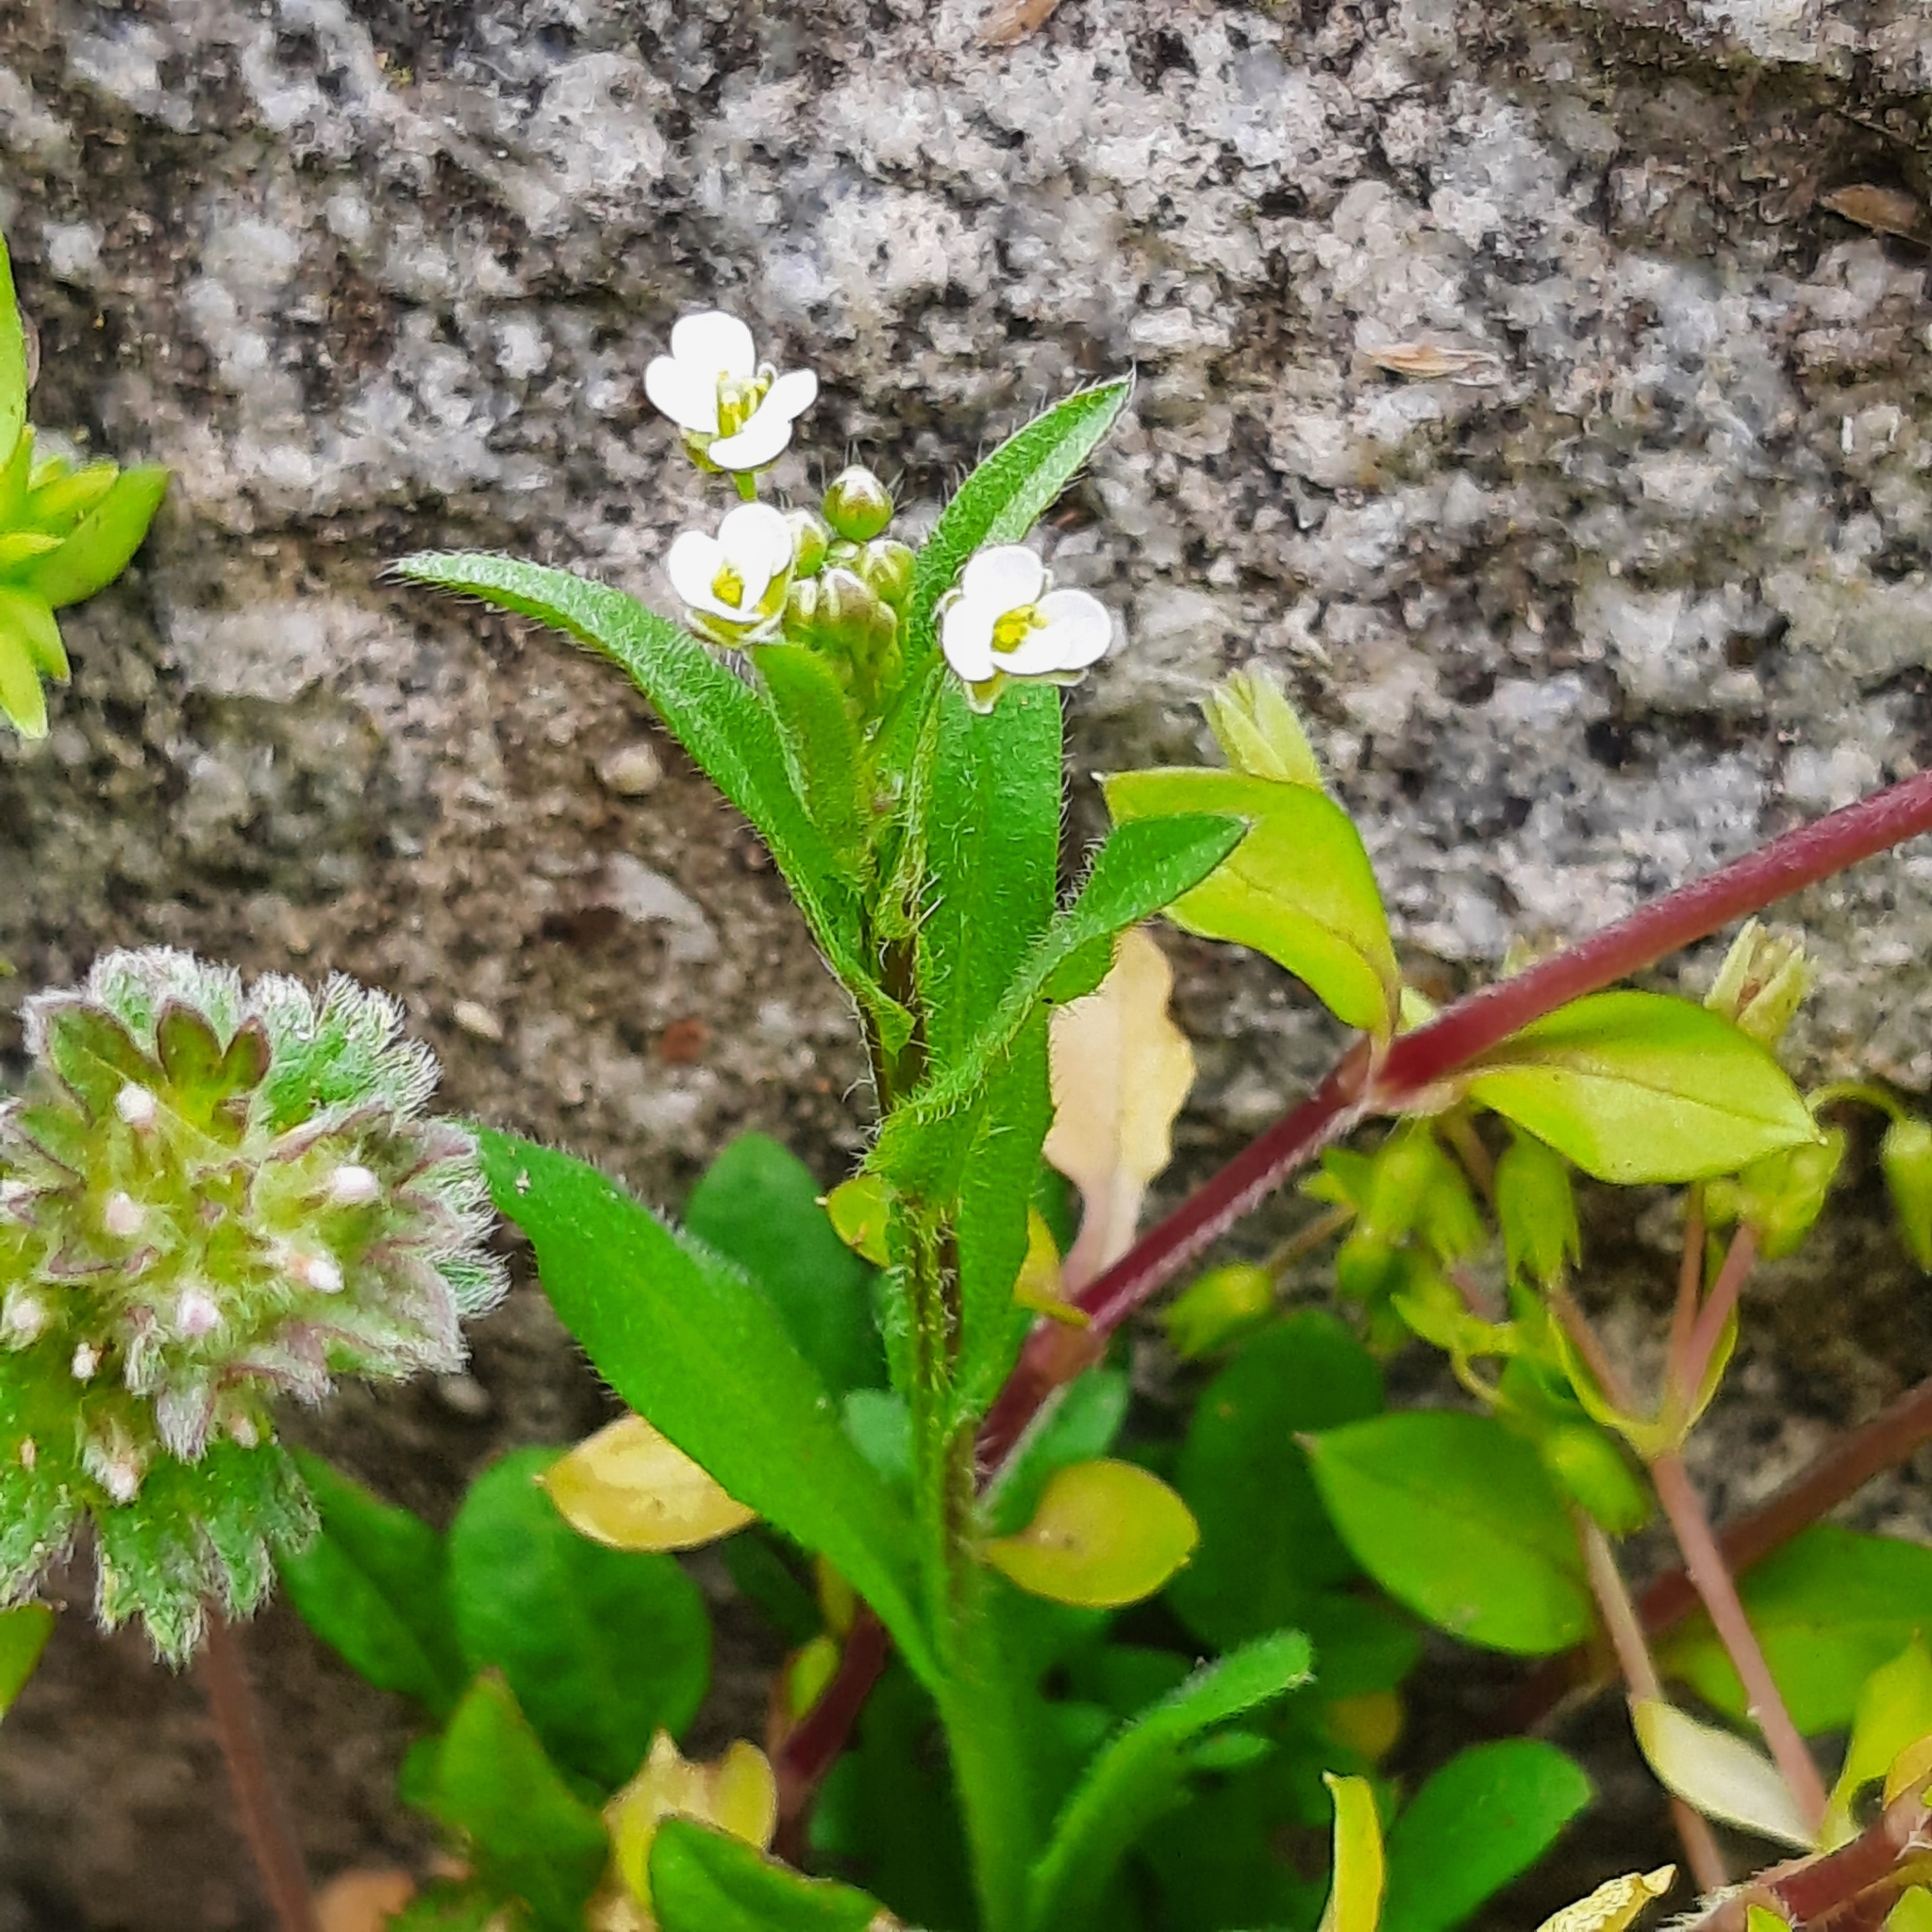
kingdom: Plantae
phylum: Tracheophyta
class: Magnoliopsida
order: Brassicales
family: Brassicaceae
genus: Capsella
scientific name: Capsella bursa-pastoris
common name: Shepherd's purse
